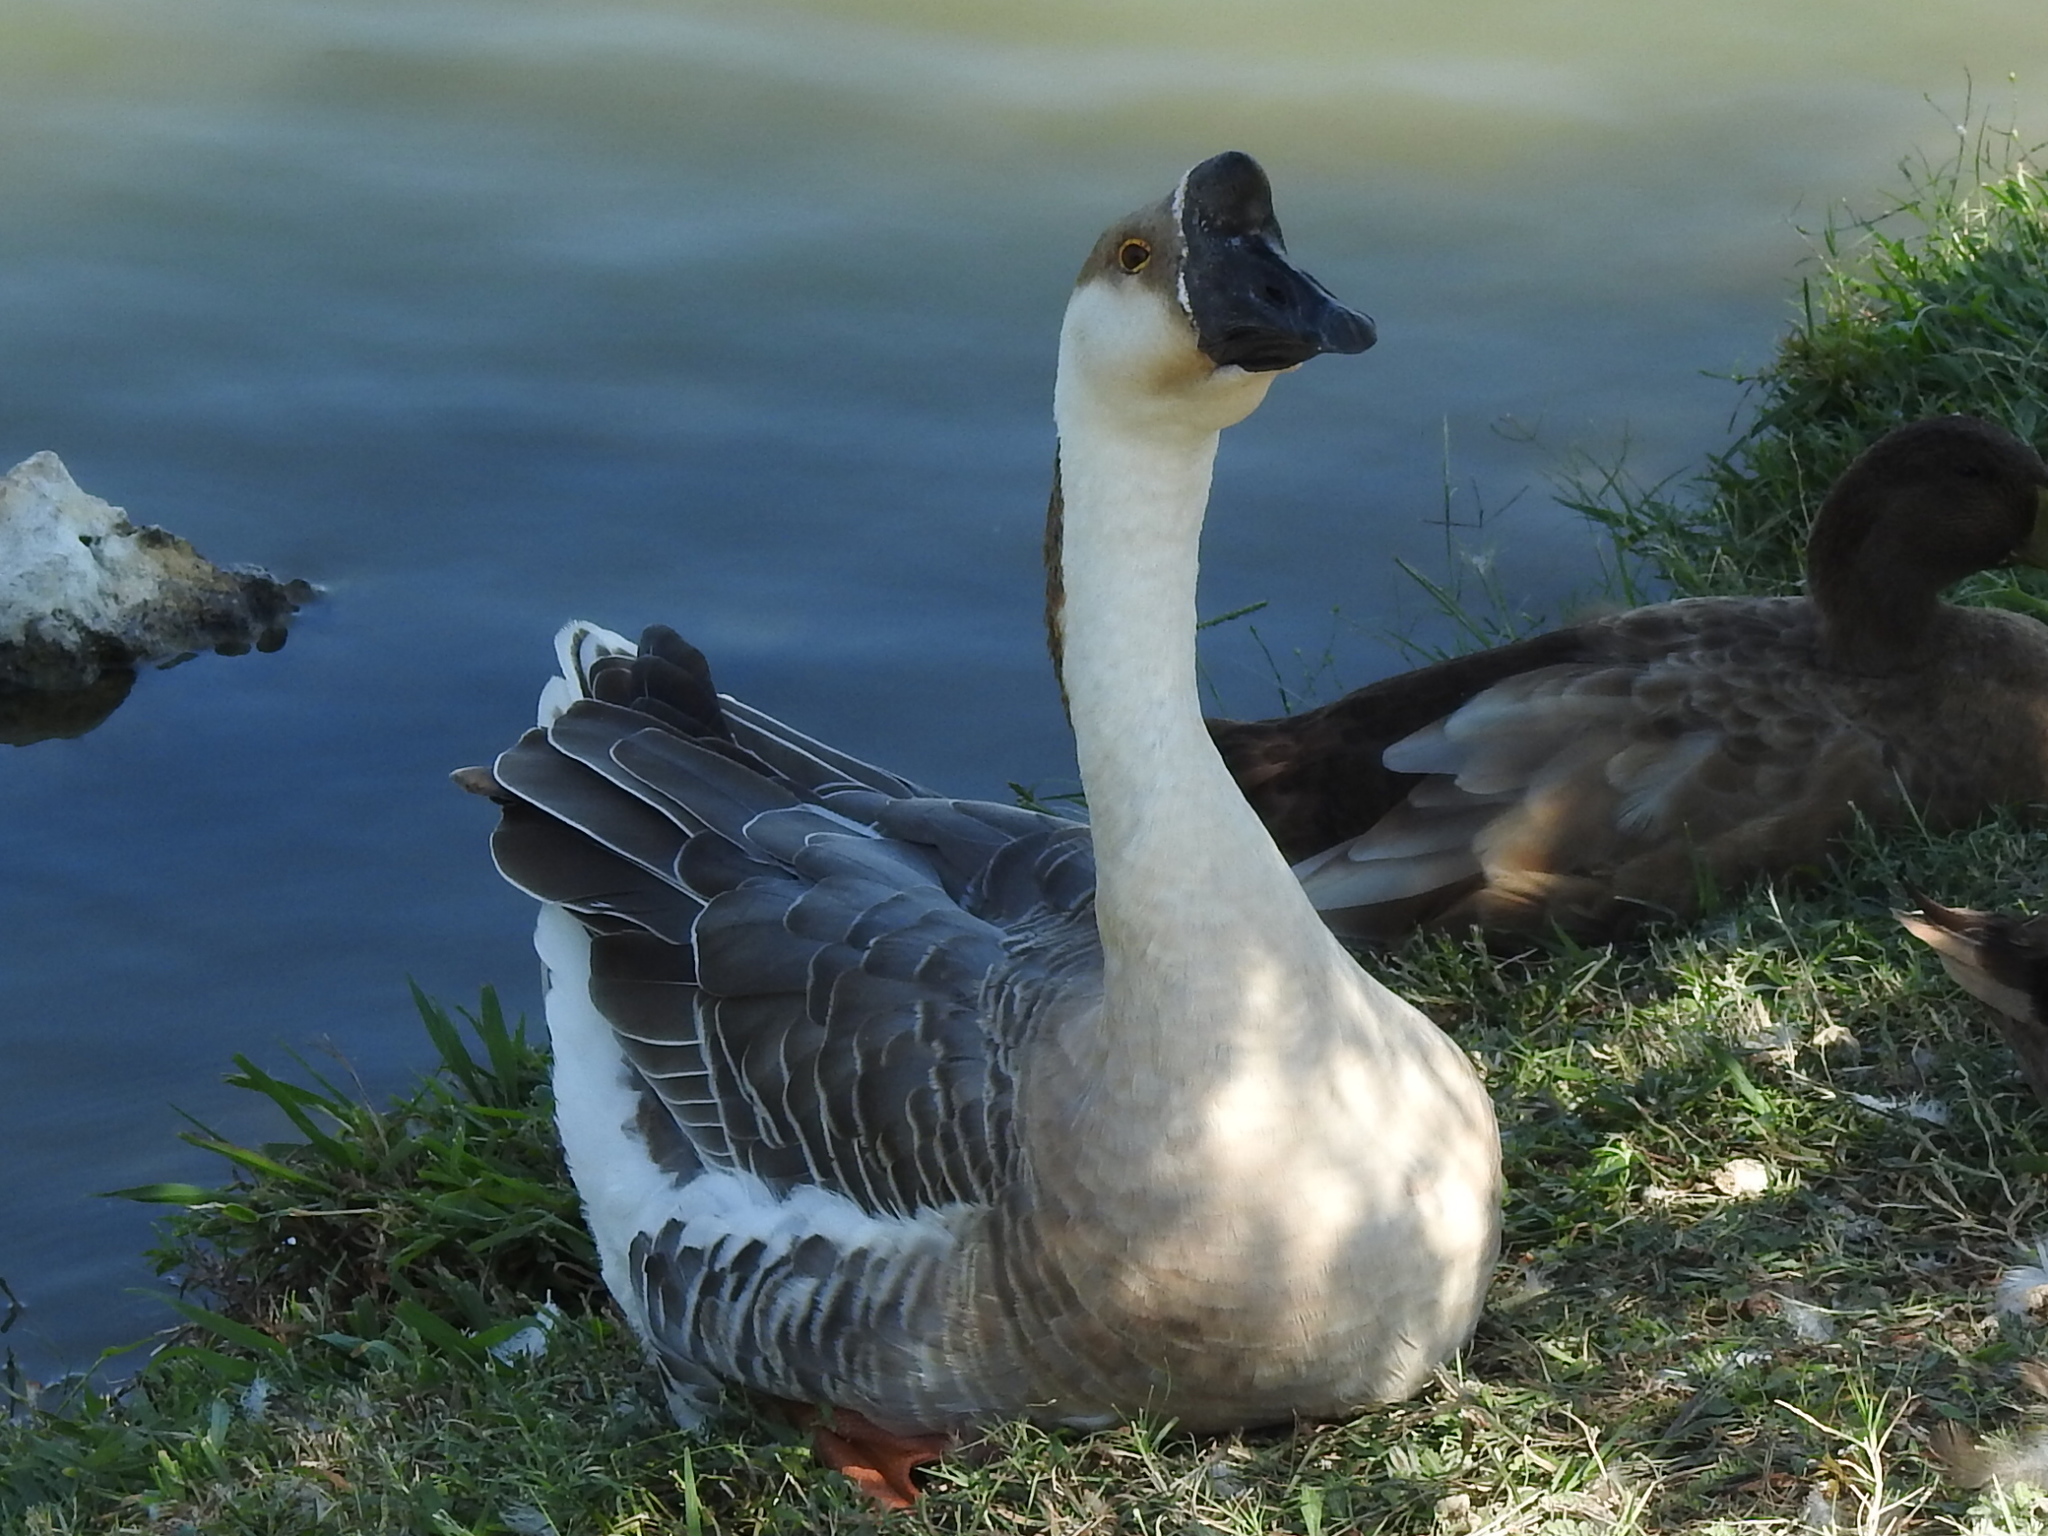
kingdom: Animalia
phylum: Chordata
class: Aves
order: Anseriformes
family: Anatidae
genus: Anser
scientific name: Anser cygnoides
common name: Swan goose
